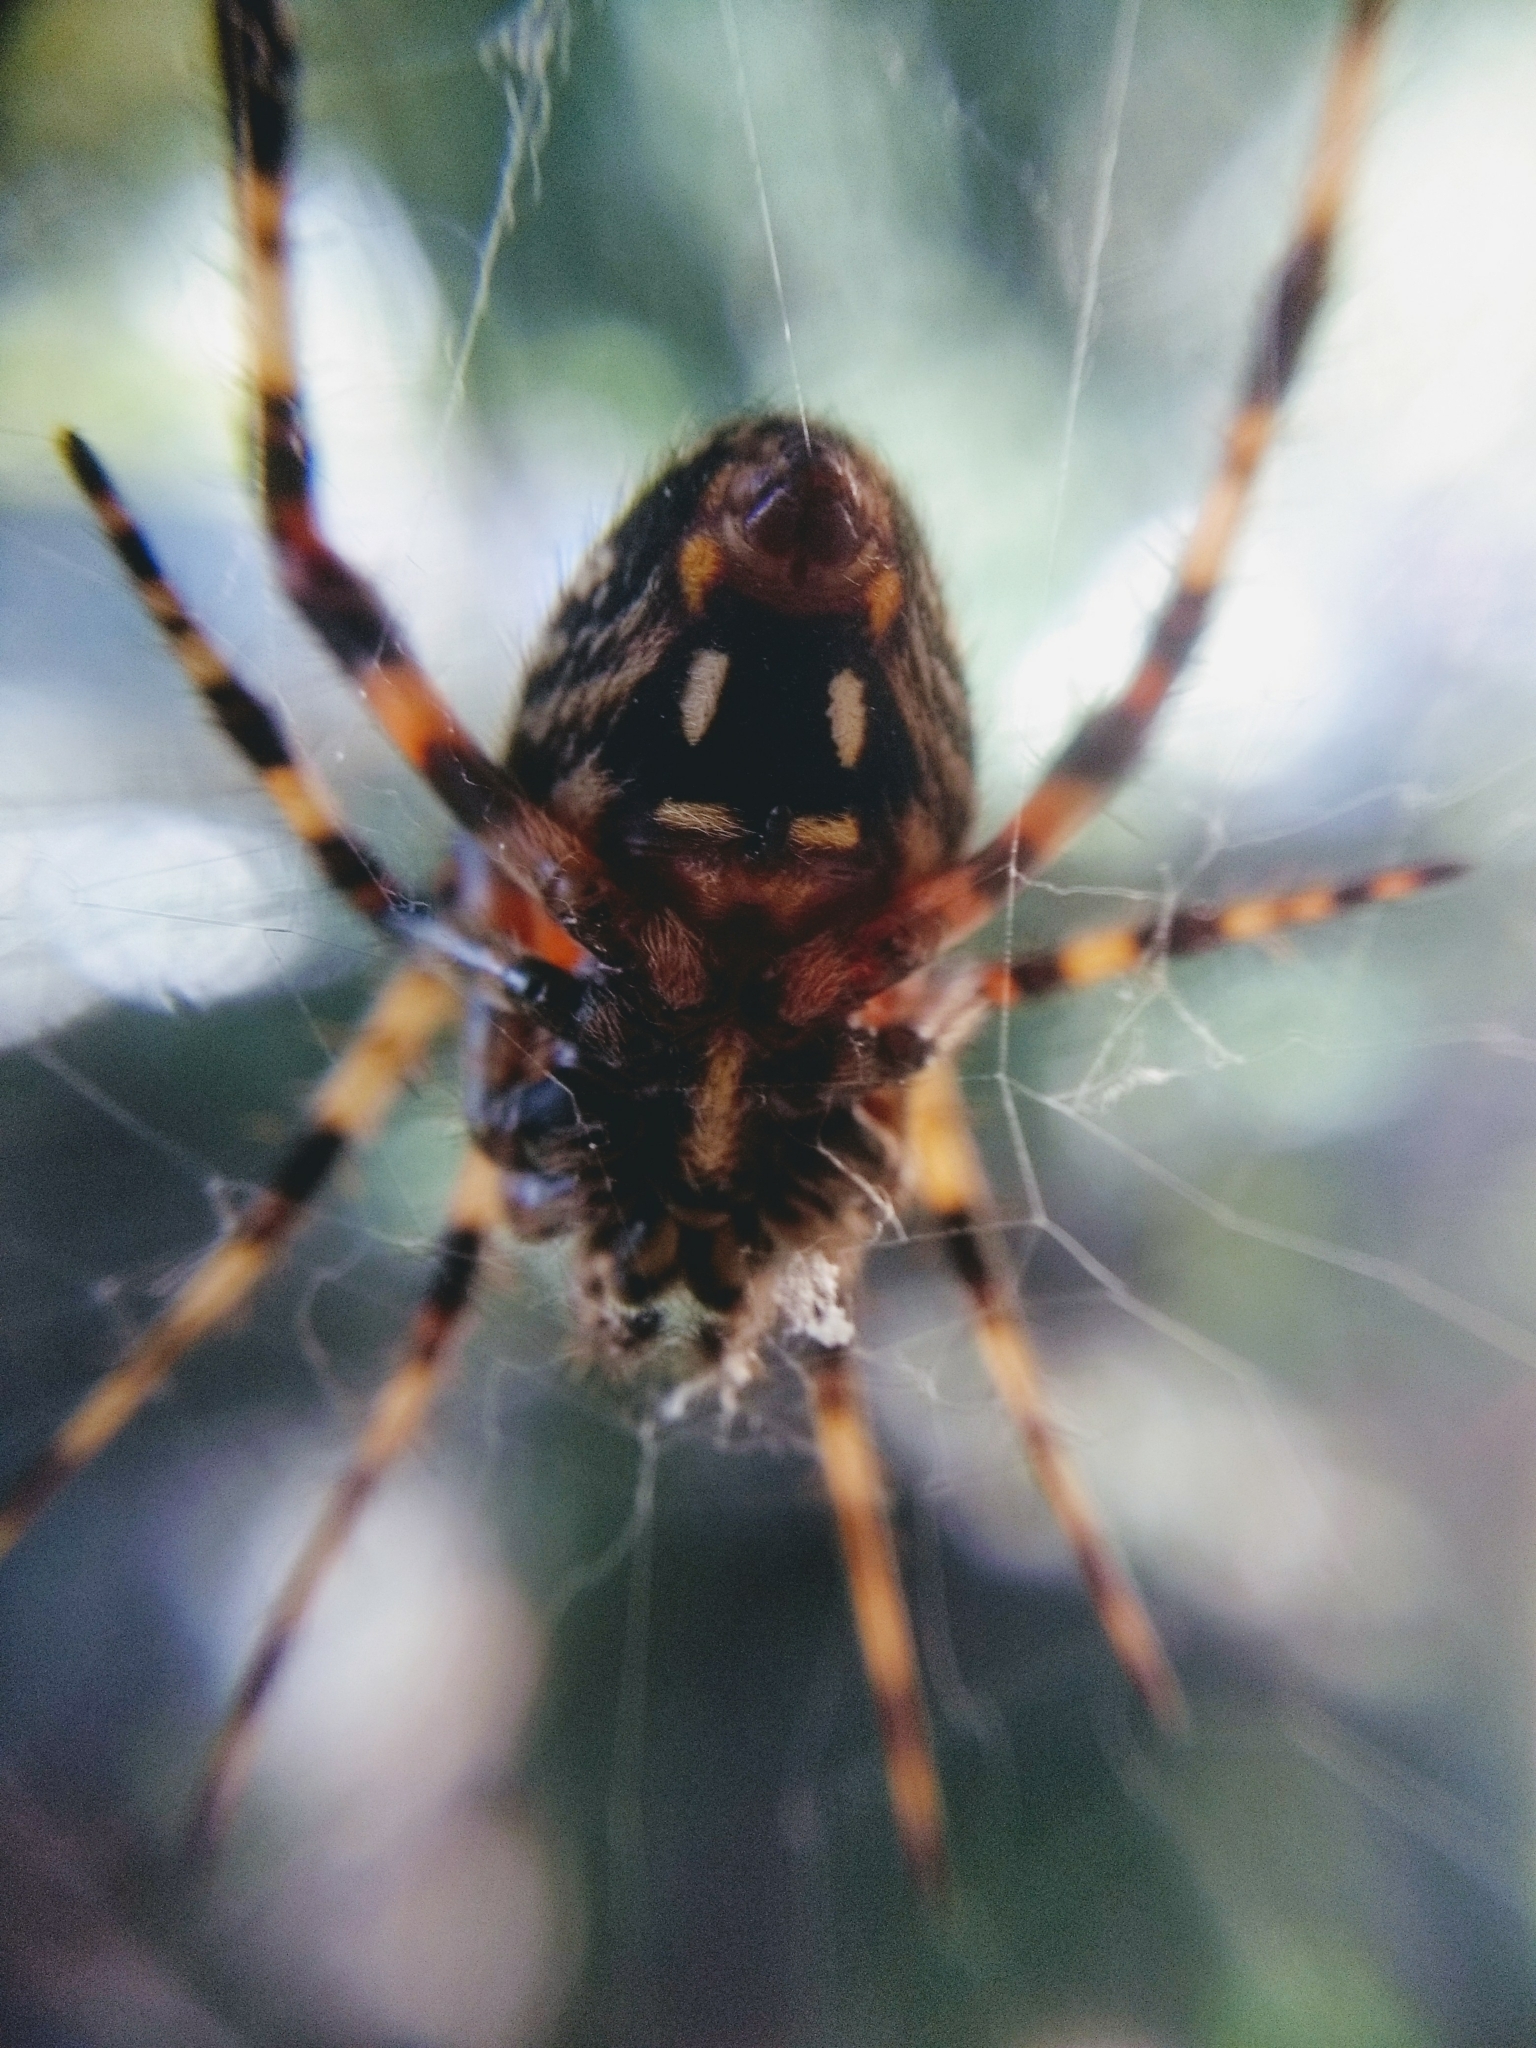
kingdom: Animalia
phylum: Arthropoda
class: Arachnida
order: Araneae
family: Araneidae
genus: Neoscona
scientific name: Neoscona orizabensis
